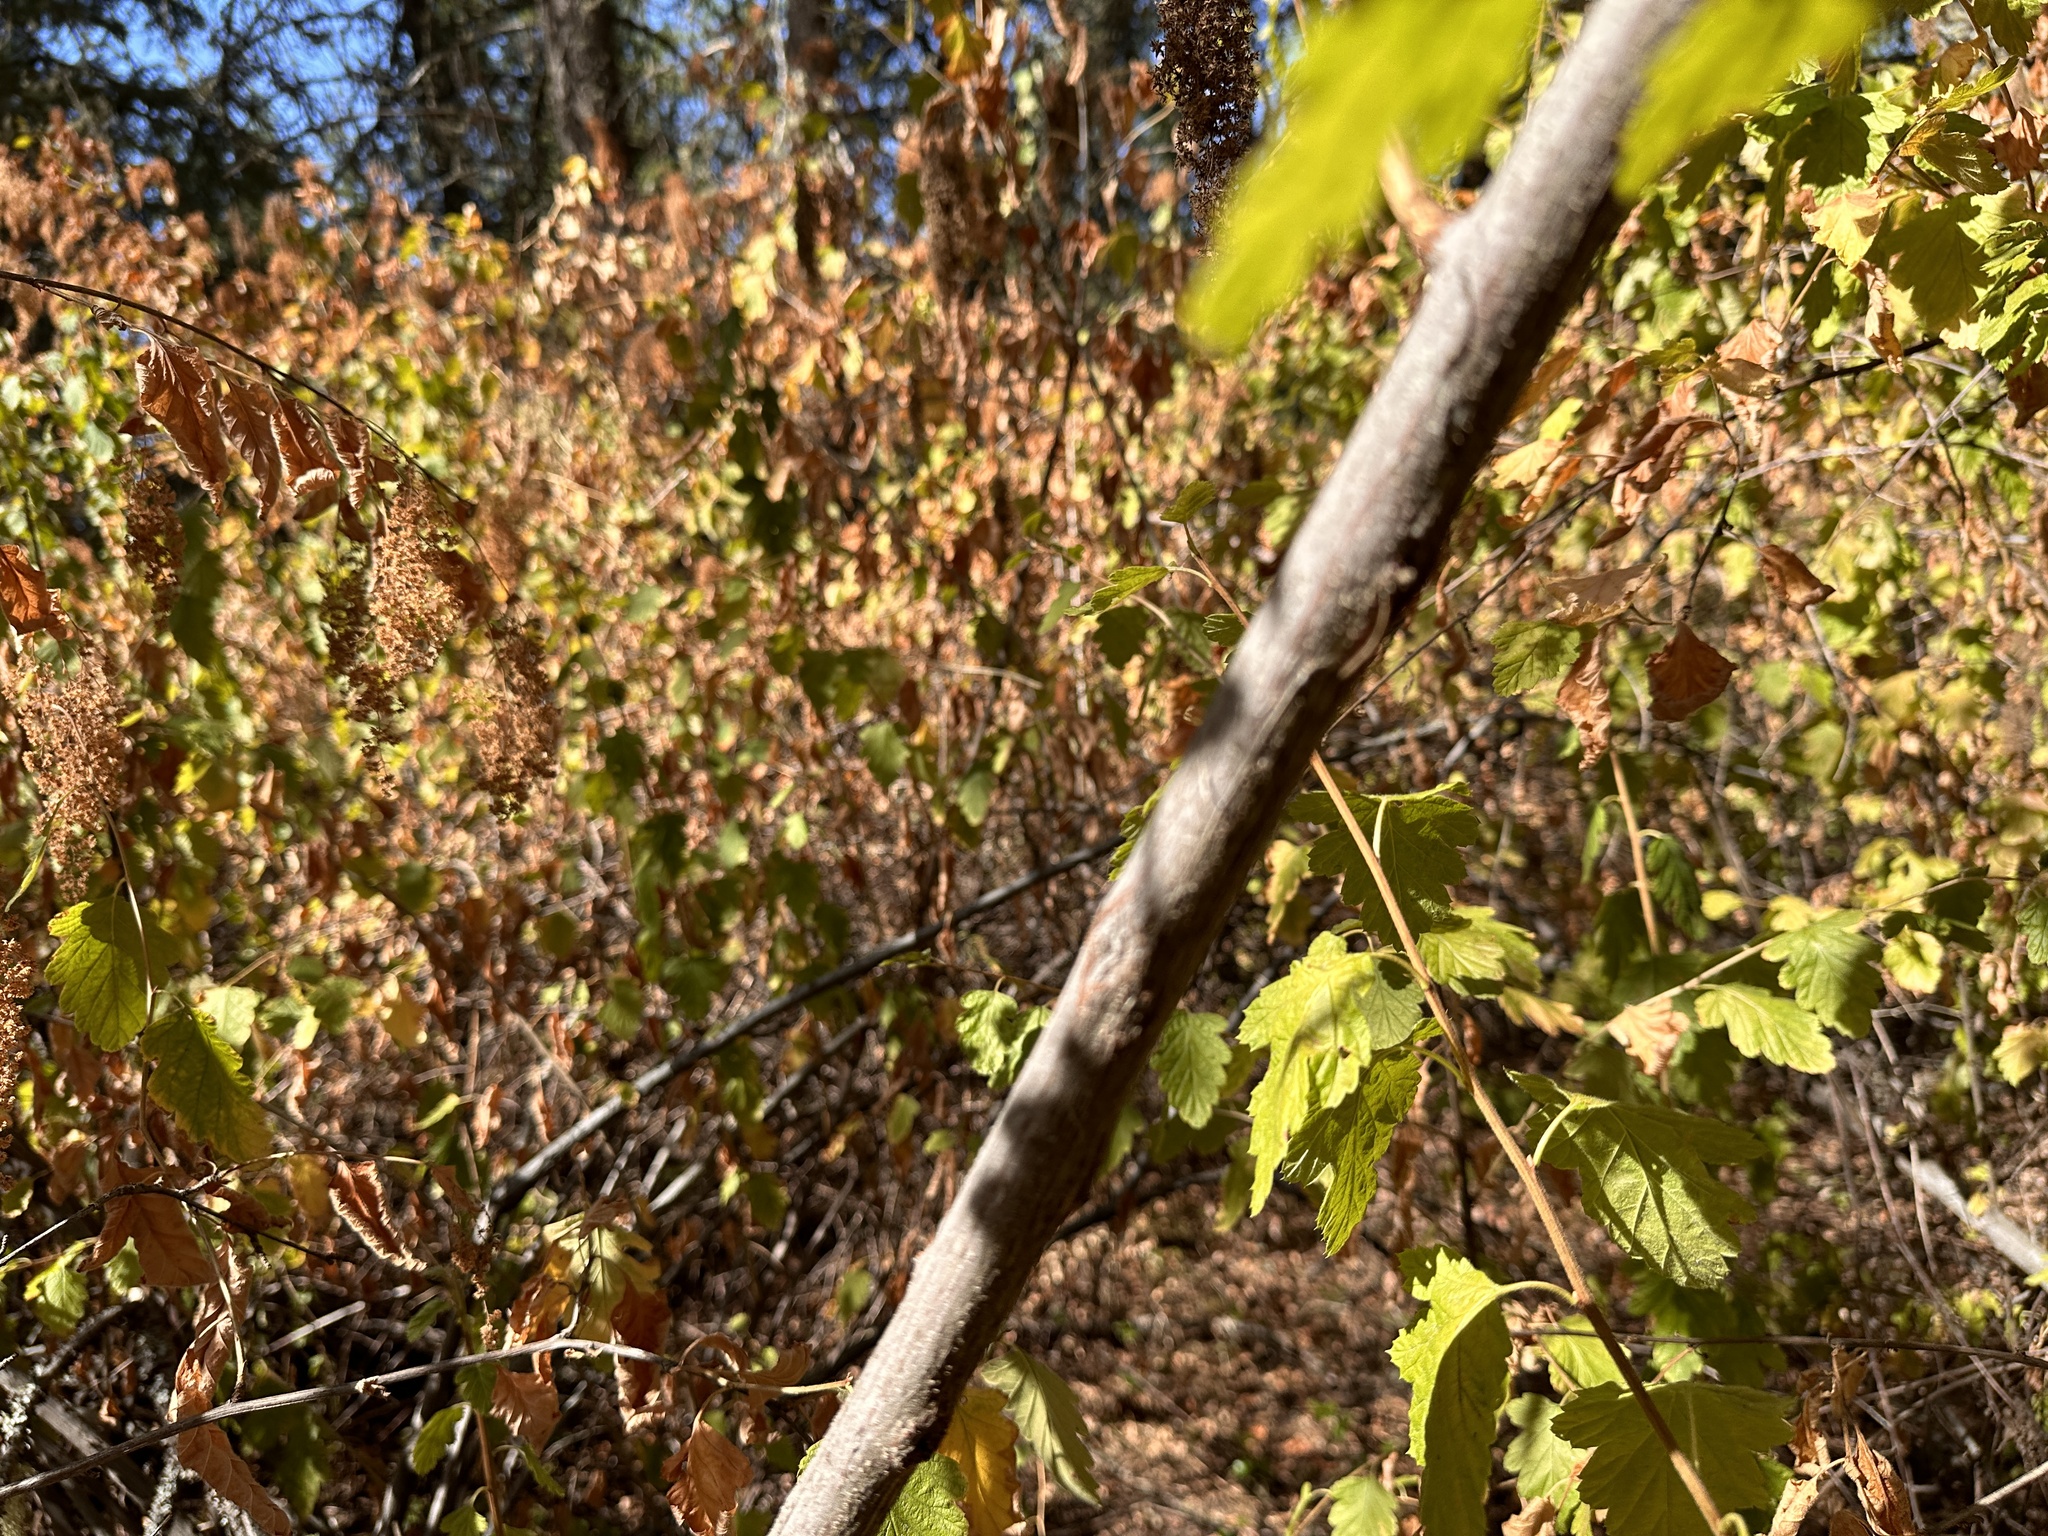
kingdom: Plantae
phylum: Tracheophyta
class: Magnoliopsida
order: Rosales
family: Rosaceae
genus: Holodiscus
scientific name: Holodiscus discolor
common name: Oceanspray
